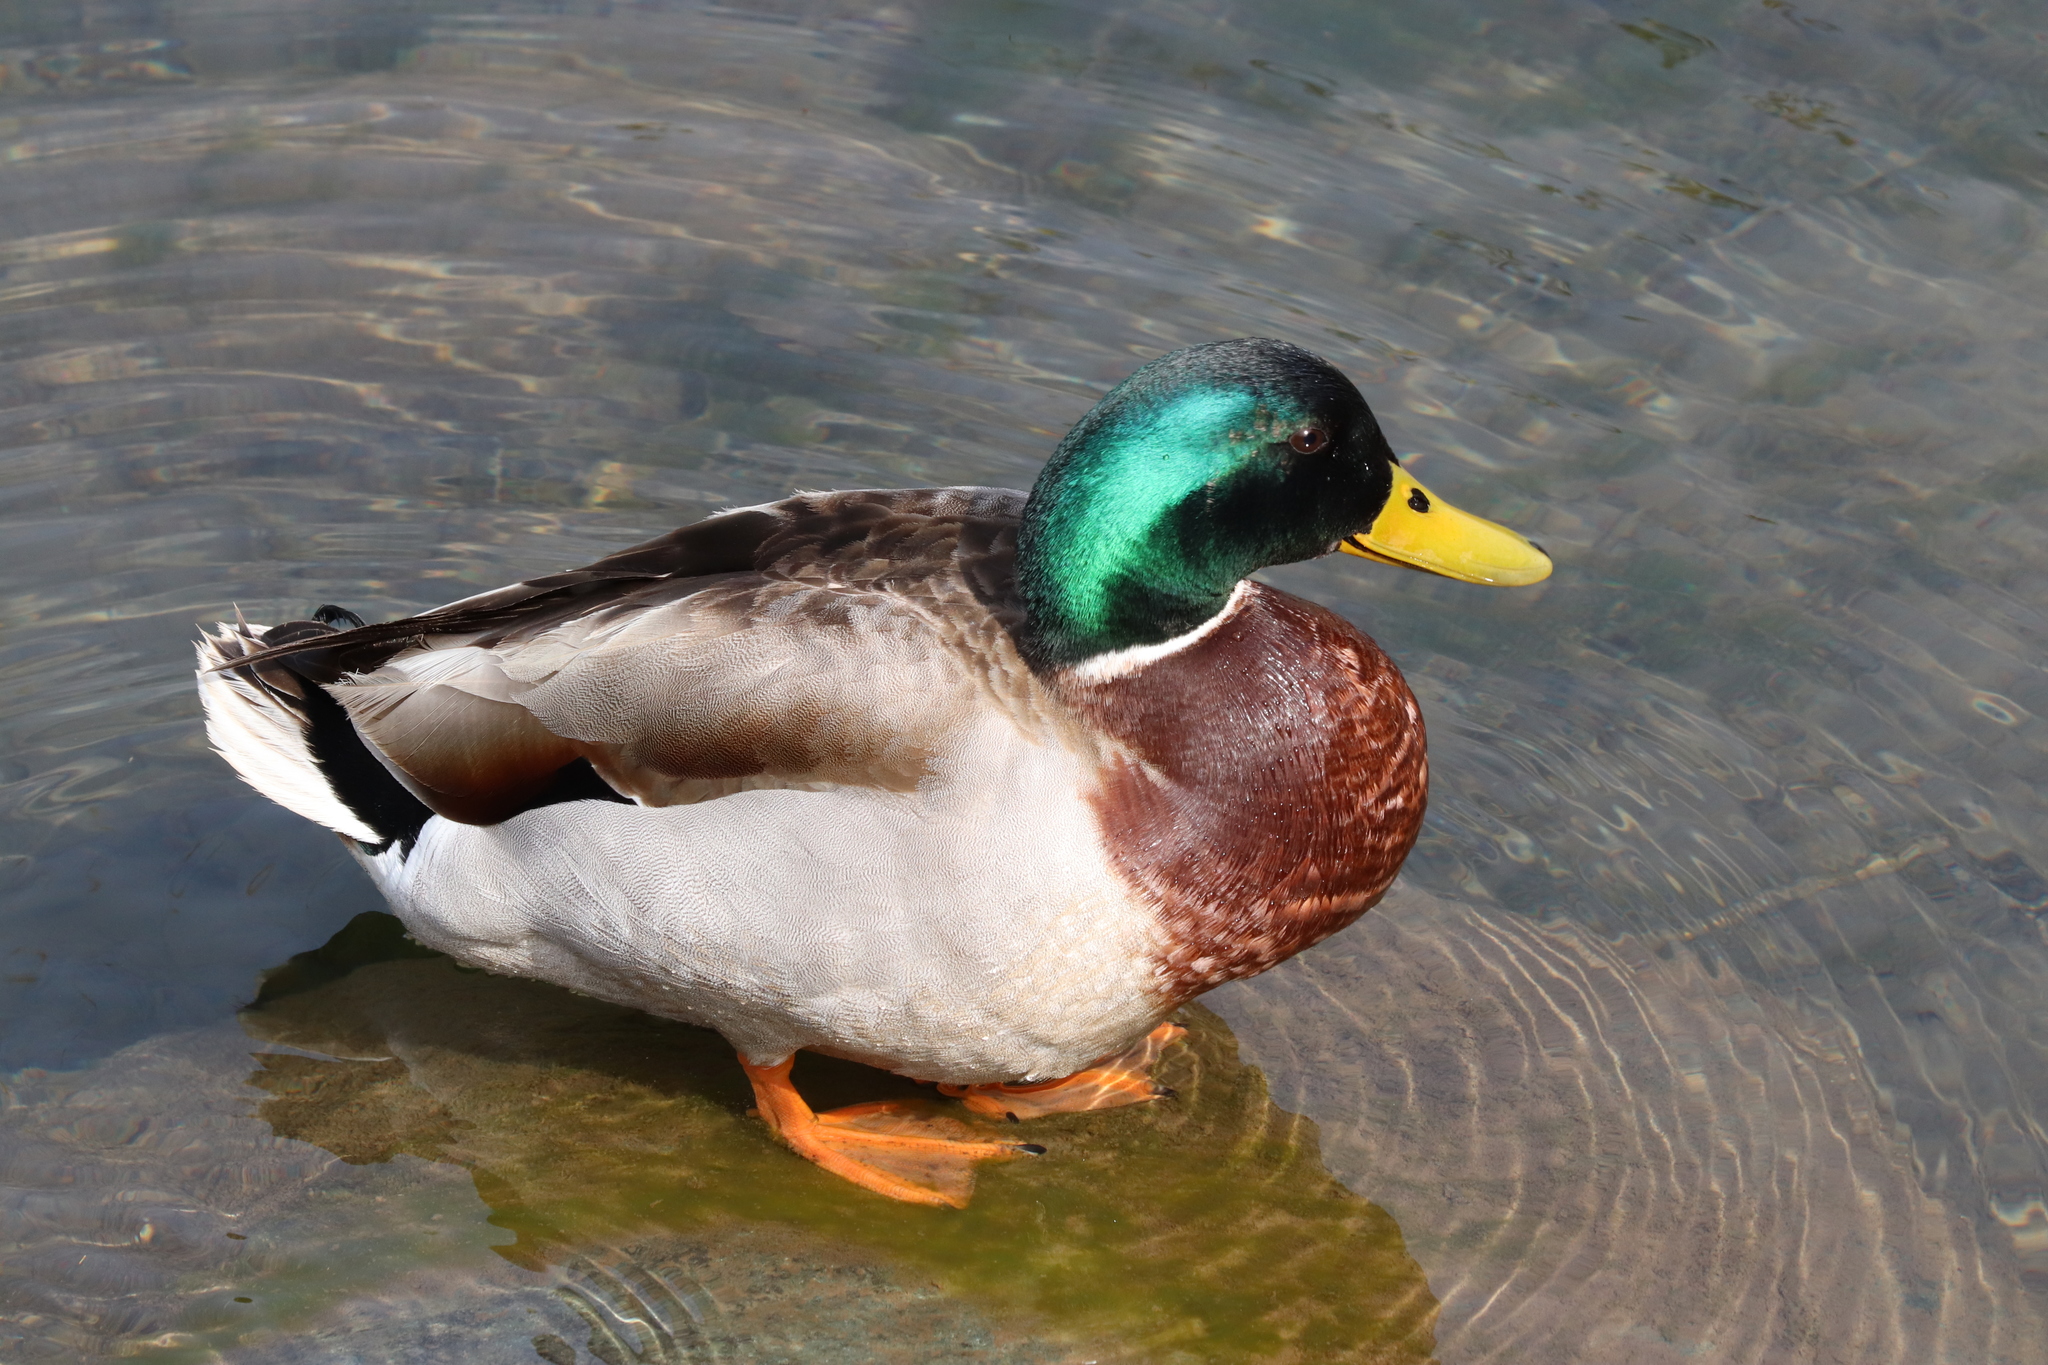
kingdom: Animalia
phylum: Chordata
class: Aves
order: Anseriformes
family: Anatidae
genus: Anas
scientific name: Anas platyrhynchos
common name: Mallard
